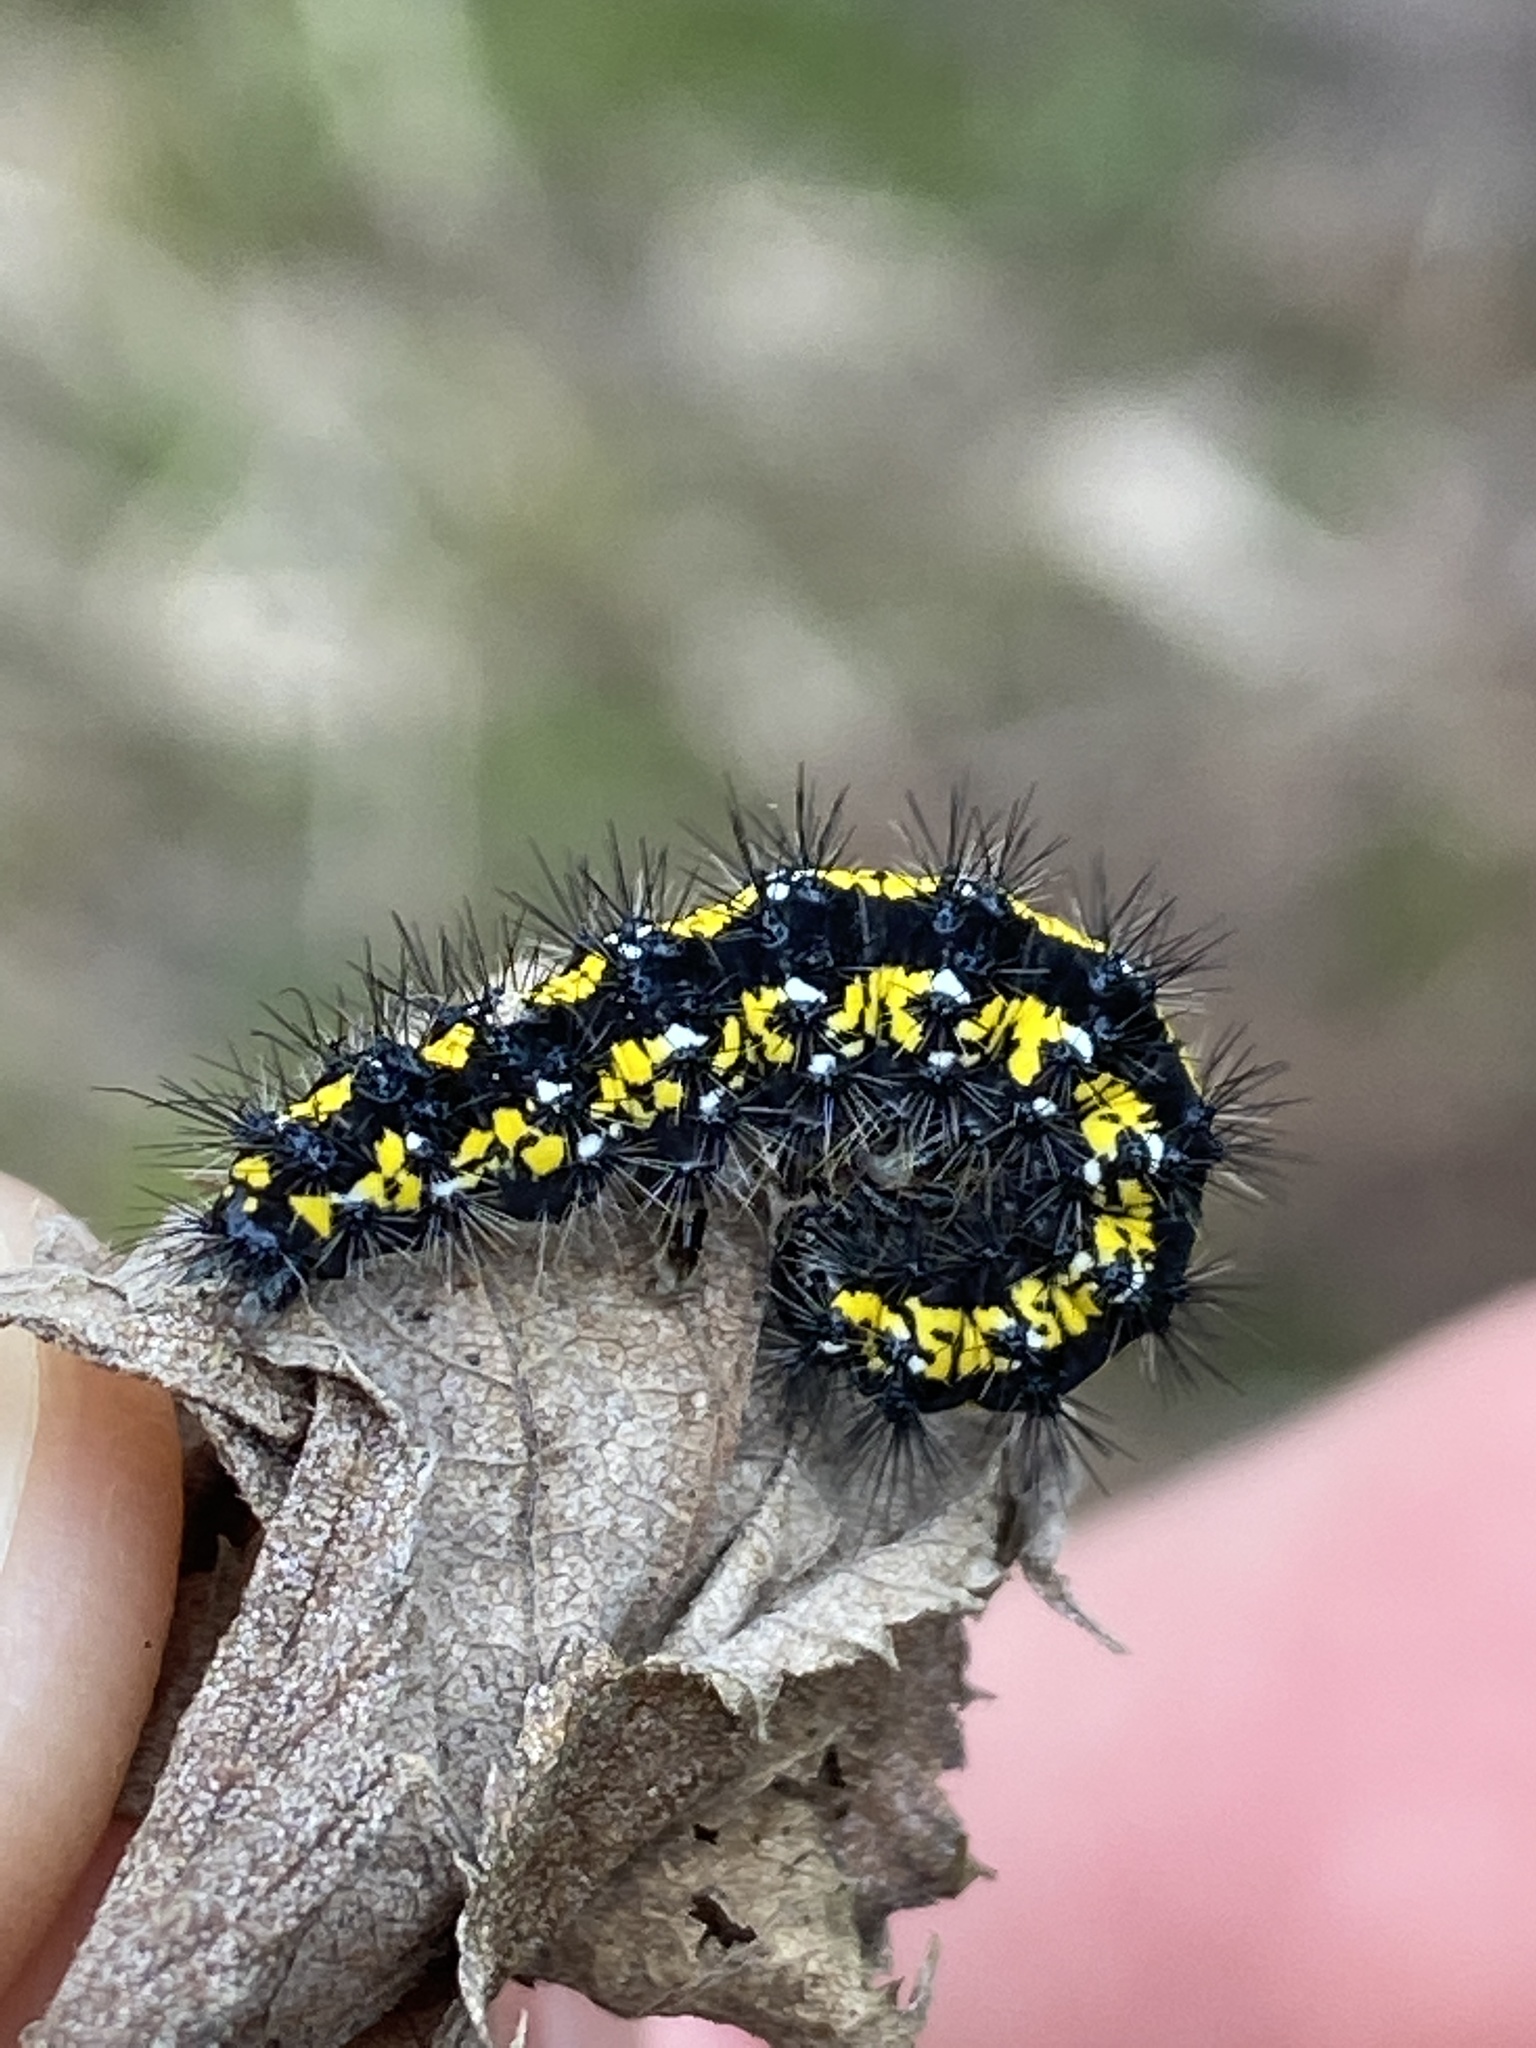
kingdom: Animalia
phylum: Arthropoda
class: Insecta
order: Lepidoptera
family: Erebidae
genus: Callimorpha
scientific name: Callimorpha dominula
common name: Scarlet tiger
